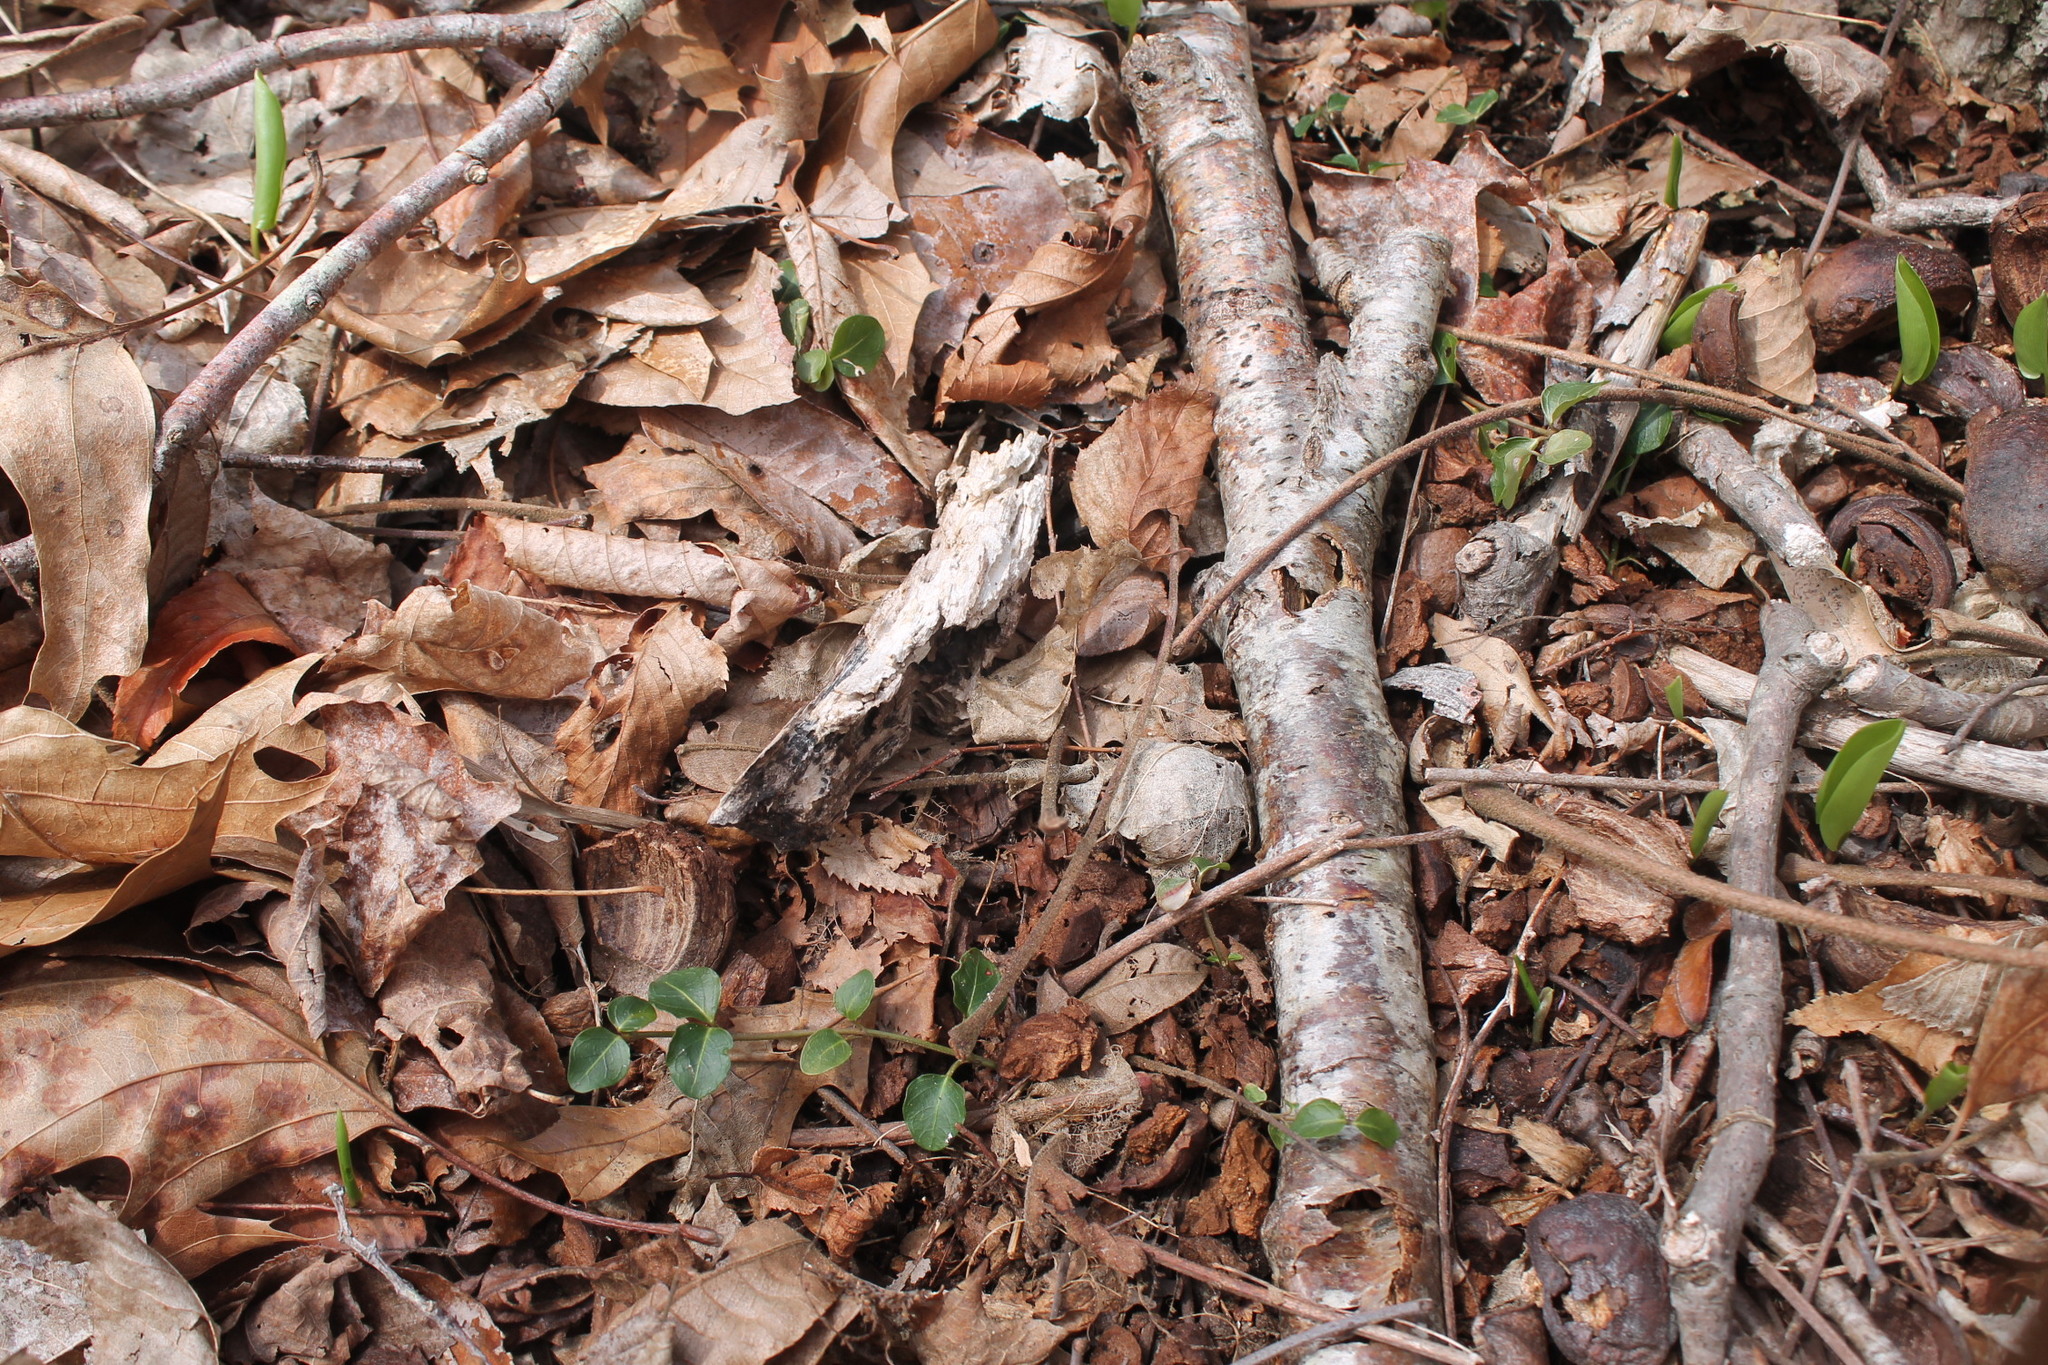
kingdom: Plantae
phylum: Tracheophyta
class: Magnoliopsida
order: Gentianales
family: Rubiaceae
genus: Mitchella
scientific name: Mitchella repens
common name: Partridge-berry
